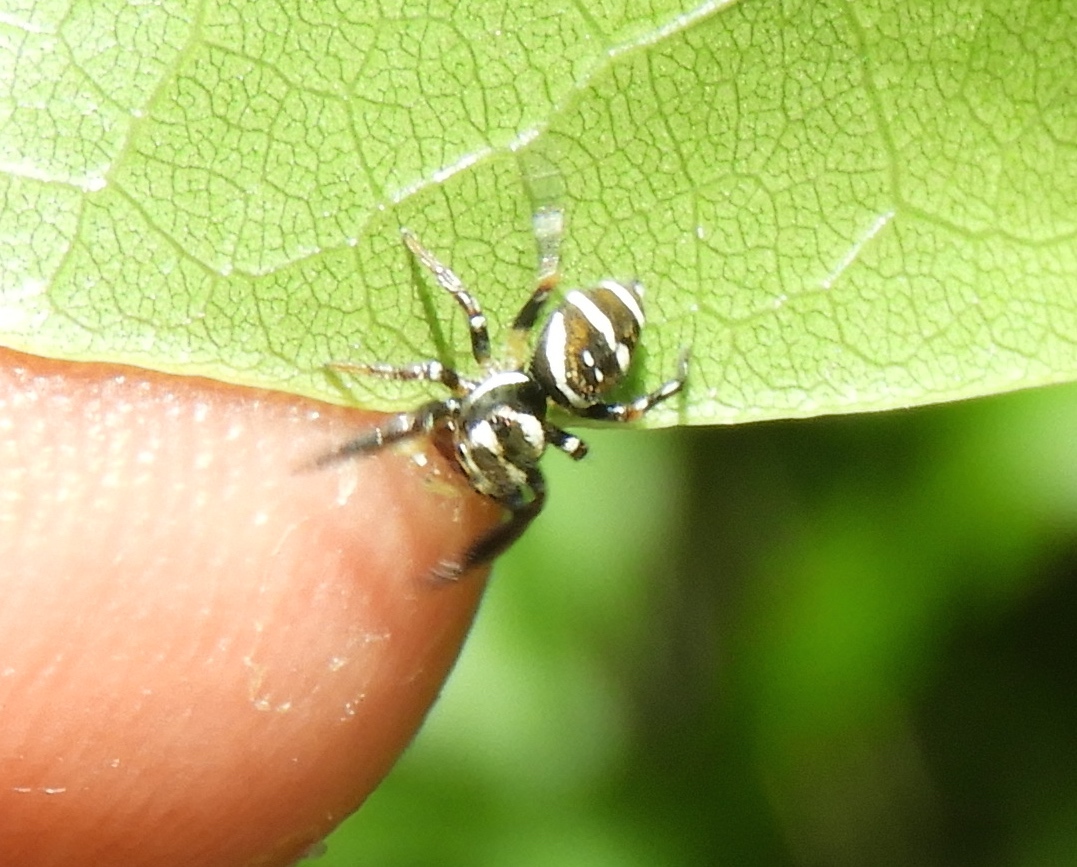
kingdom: Animalia
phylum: Arthropoda
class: Arachnida
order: Araneae
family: Salticidae
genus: Sassacus
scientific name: Sassacus
